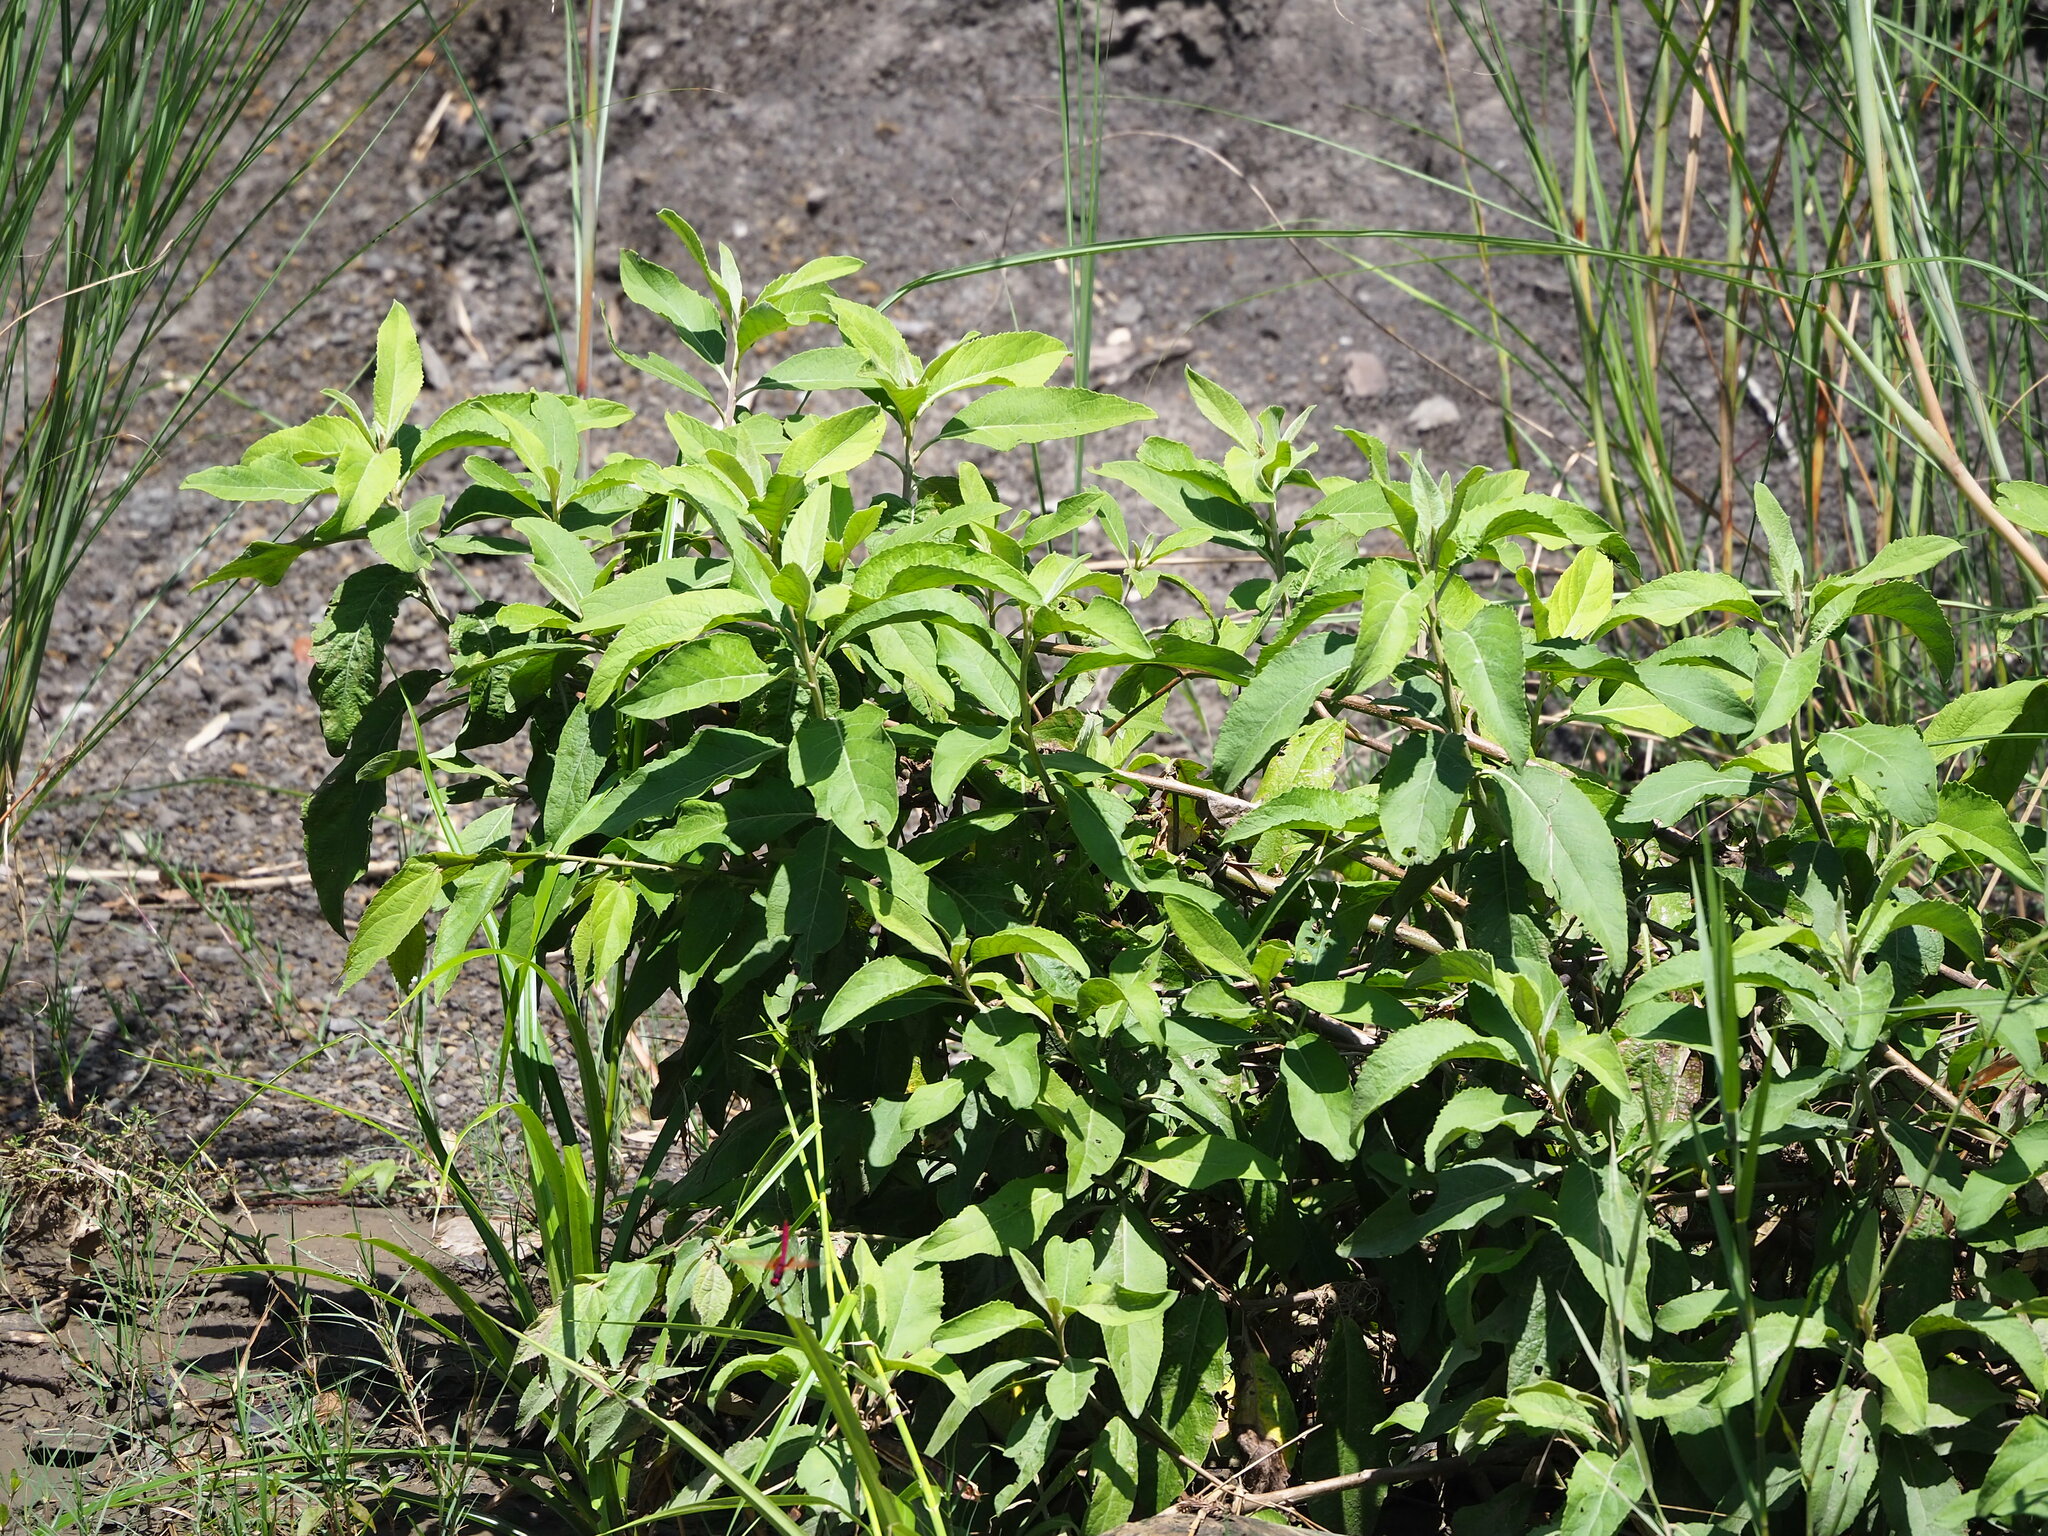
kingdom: Plantae
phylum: Tracheophyta
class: Magnoliopsida
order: Asterales
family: Asteraceae
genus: Pluchea
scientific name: Pluchea carolinensis
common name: Marsh fleabane
